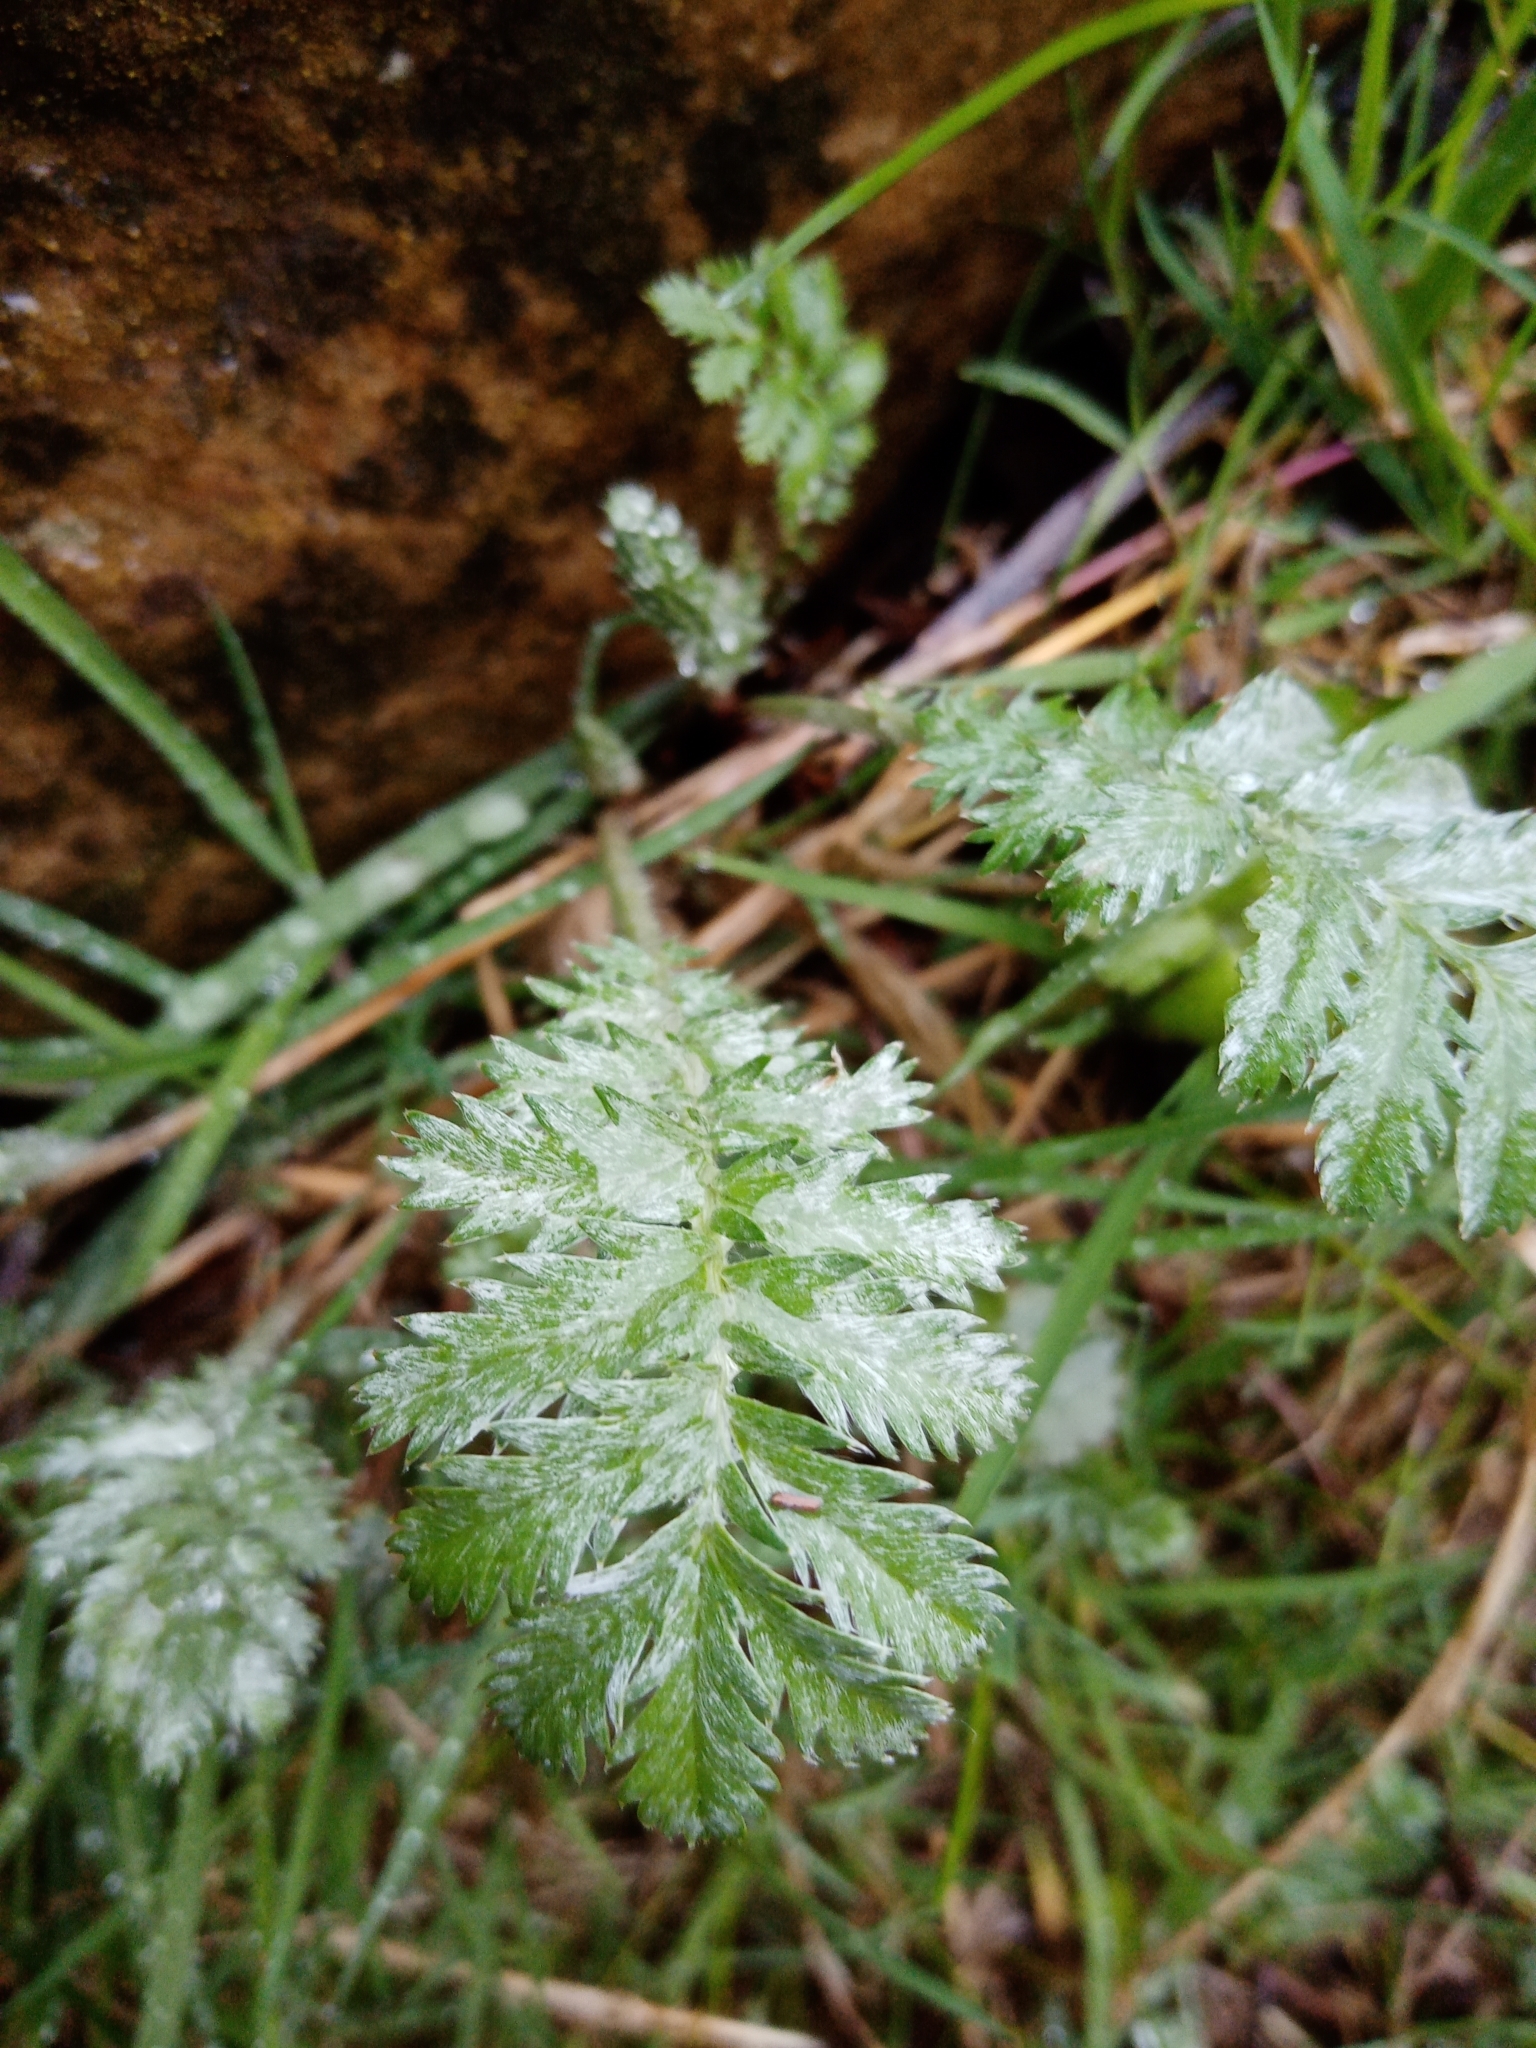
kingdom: Plantae
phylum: Tracheophyta
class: Magnoliopsida
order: Rosales
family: Rosaceae
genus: Argentina
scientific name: Argentina anserina
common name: Common silverweed
